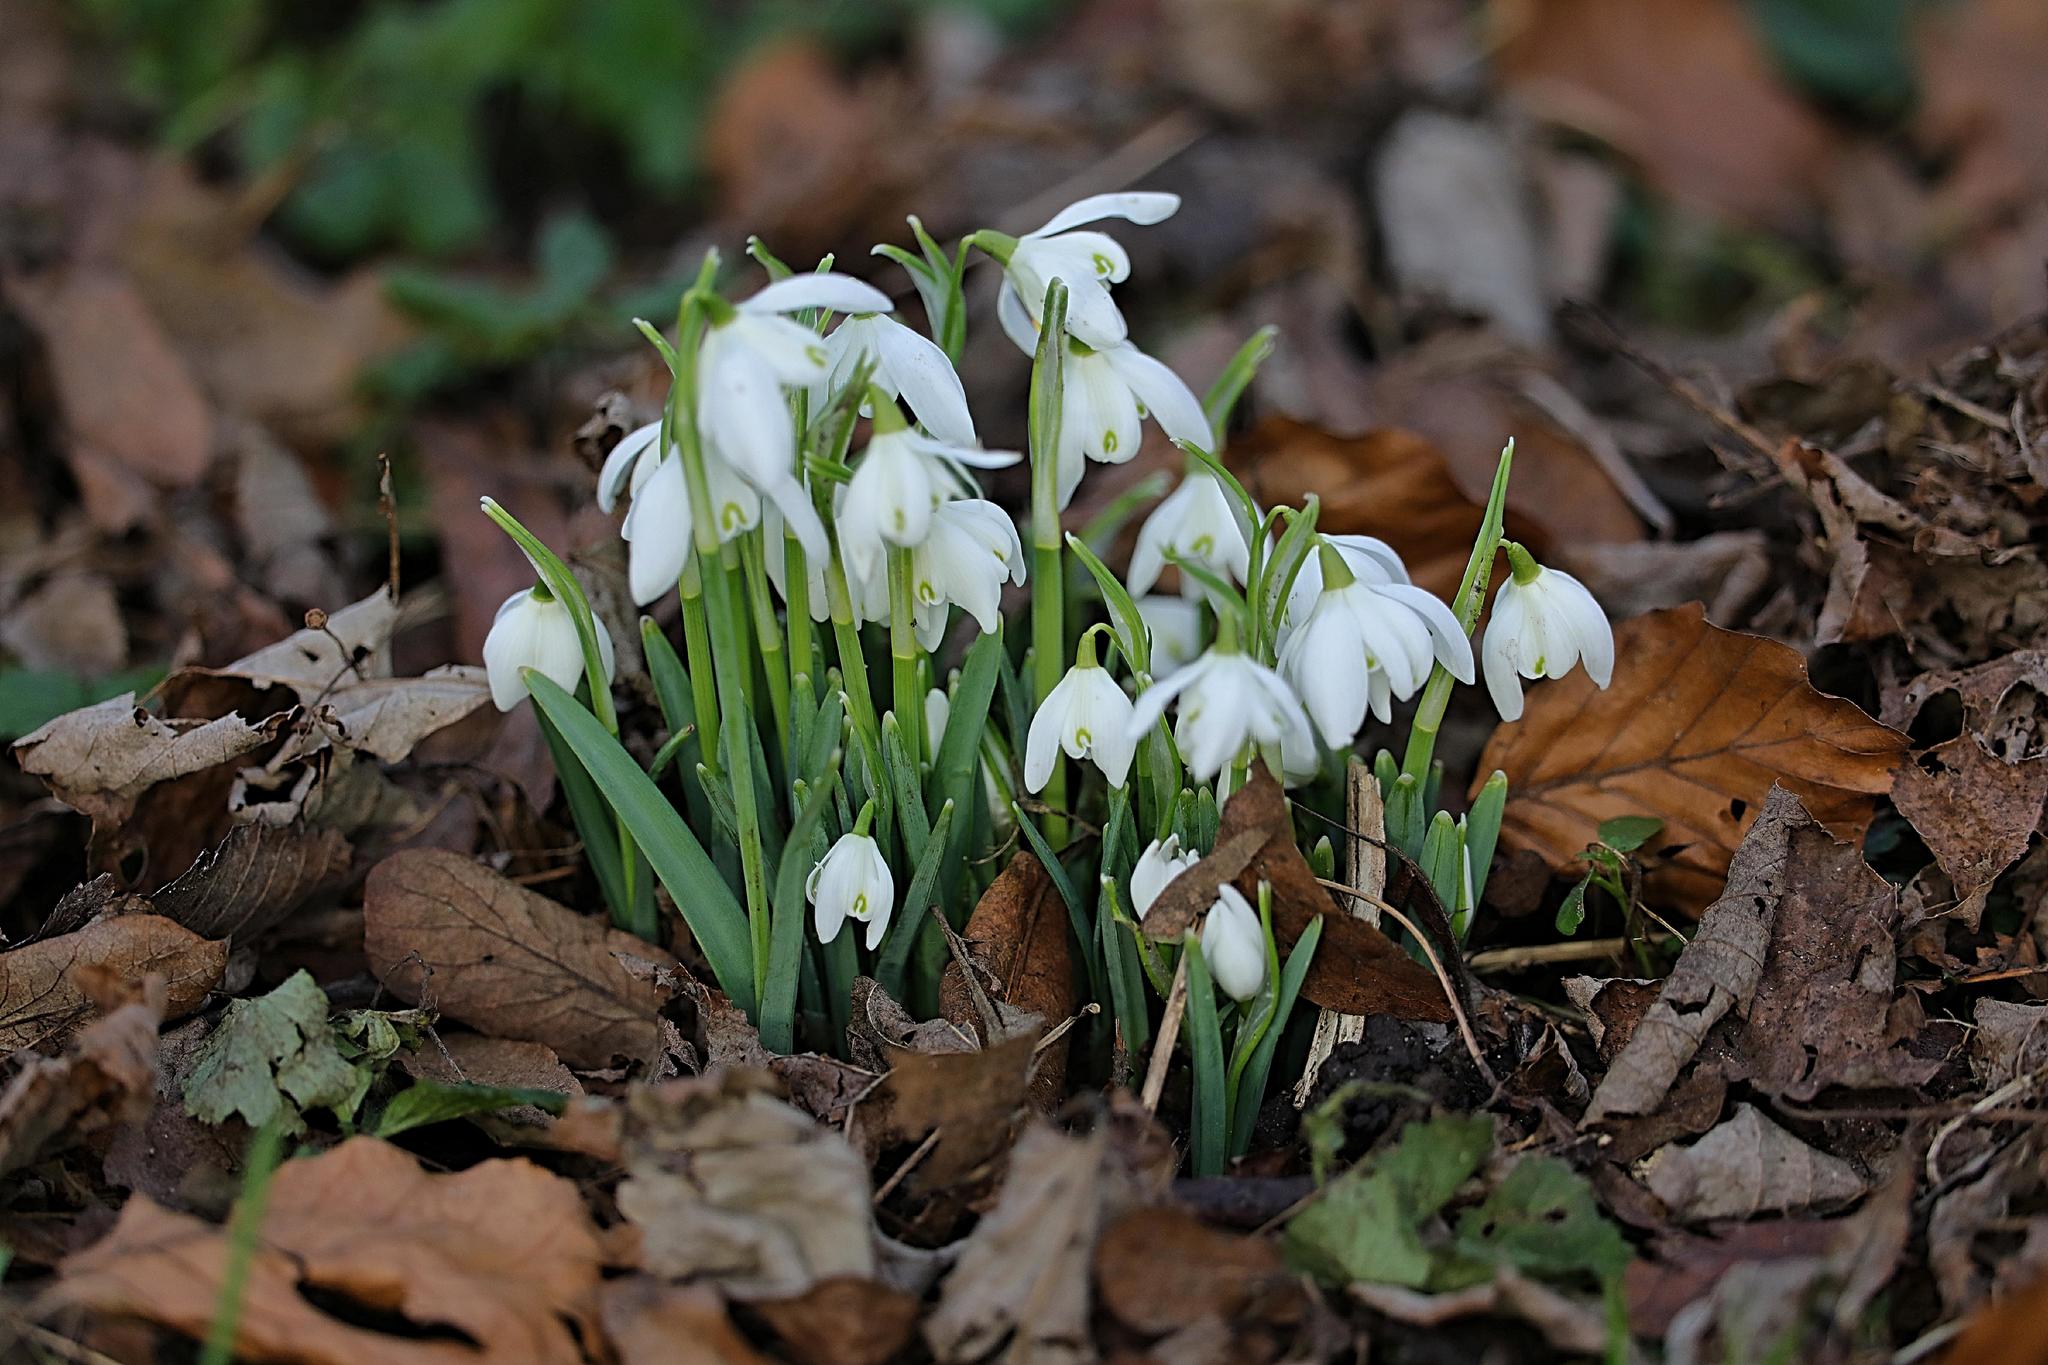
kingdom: Plantae
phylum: Tracheophyta
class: Liliopsida
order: Asparagales
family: Amaryllidaceae
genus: Galanthus
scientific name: Galanthus nivalis
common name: Snowdrop
